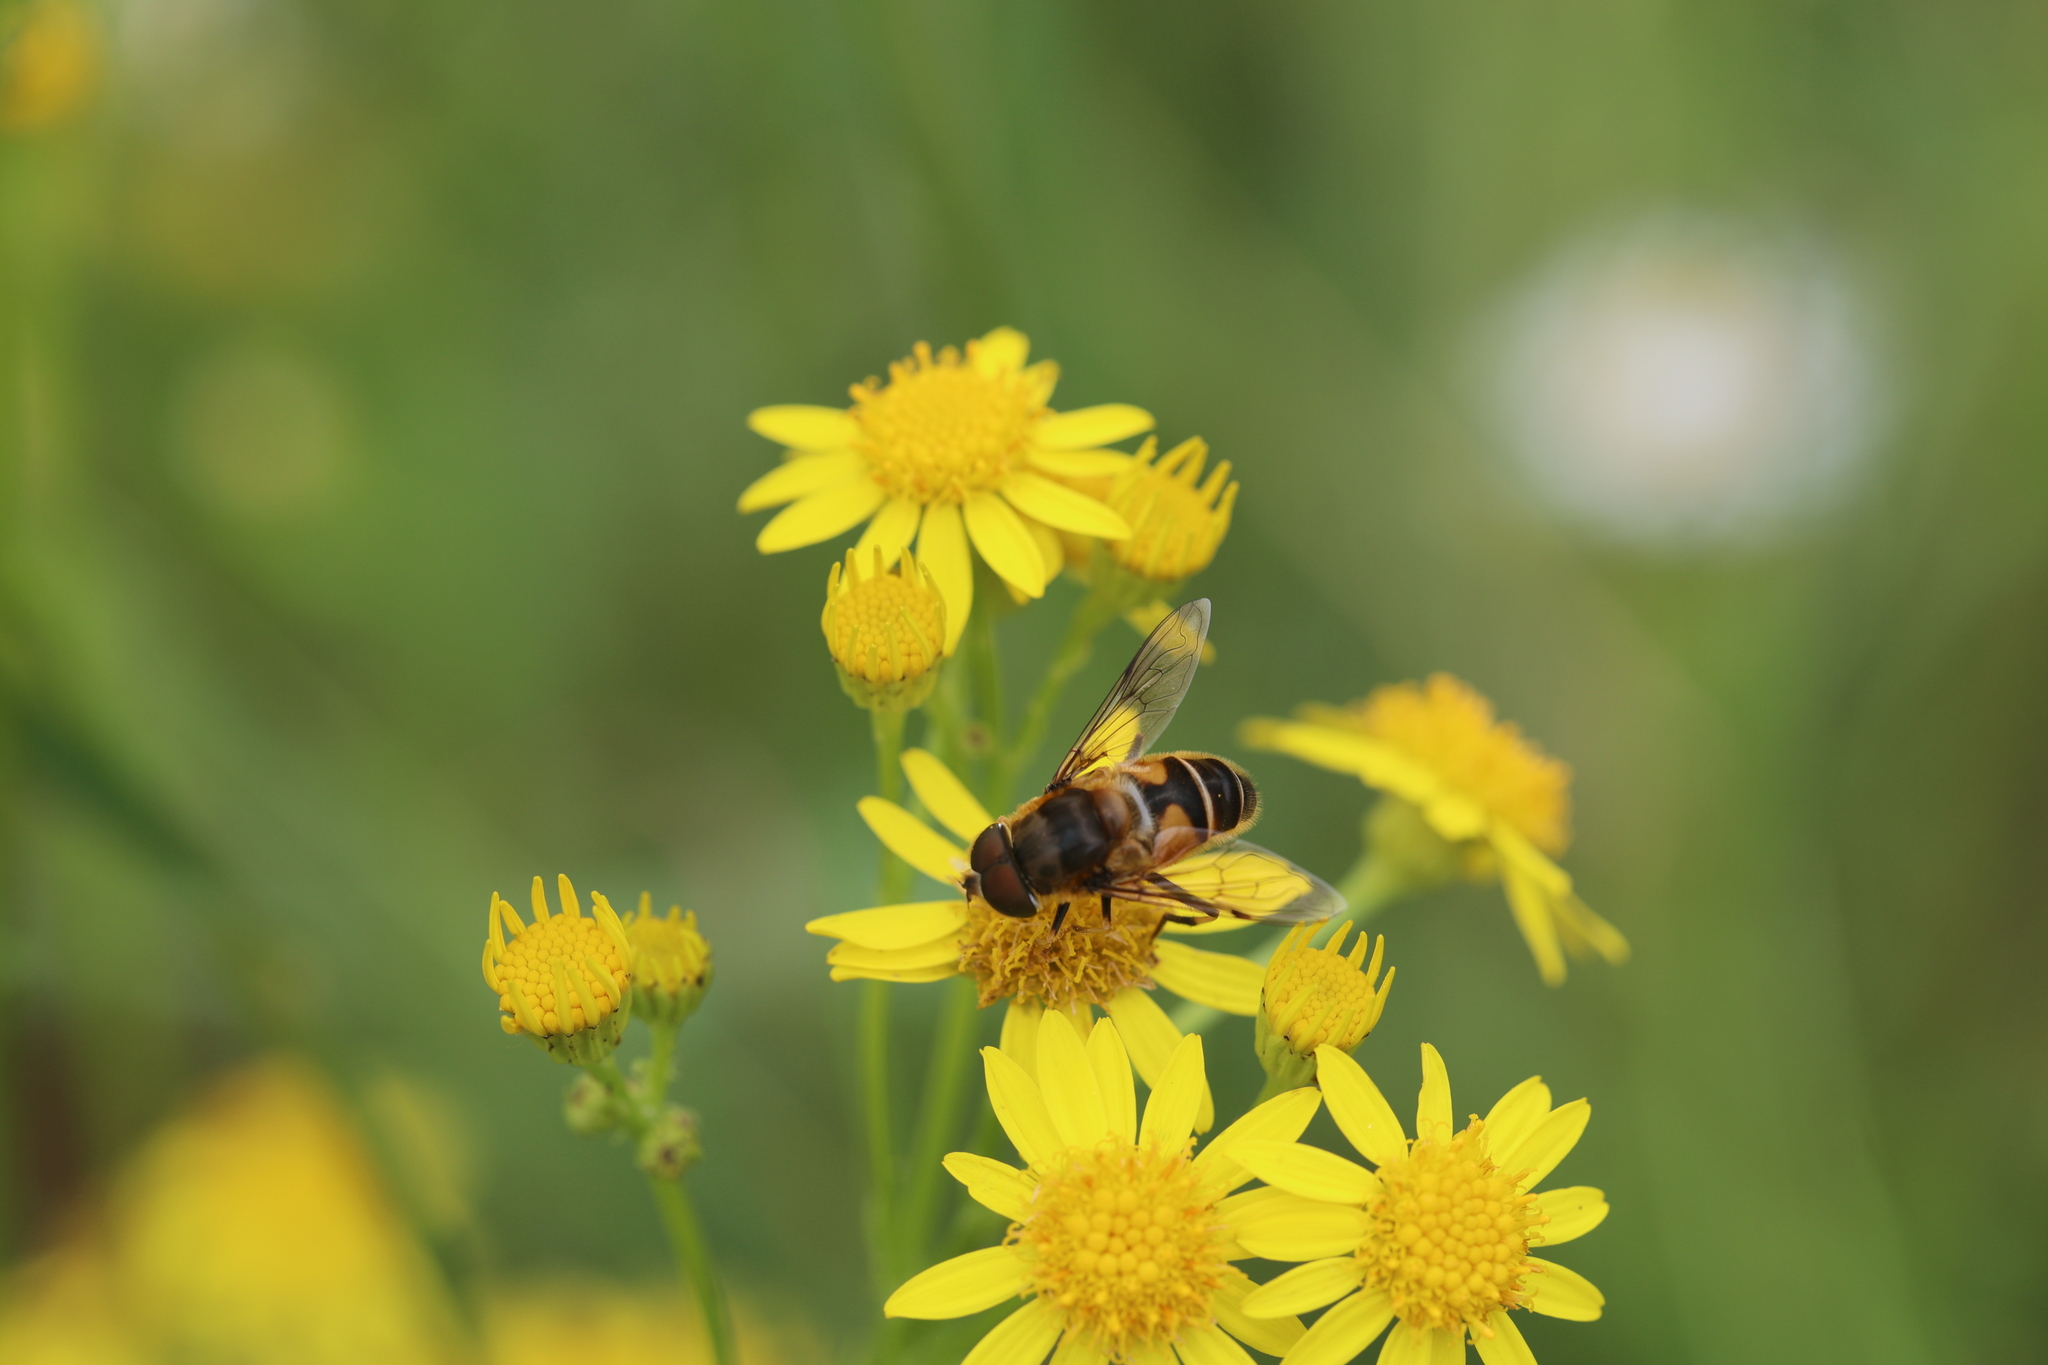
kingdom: Animalia
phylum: Arthropoda
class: Insecta
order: Diptera
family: Syrphidae
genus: Eristalis
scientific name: Eristalis pertinax
